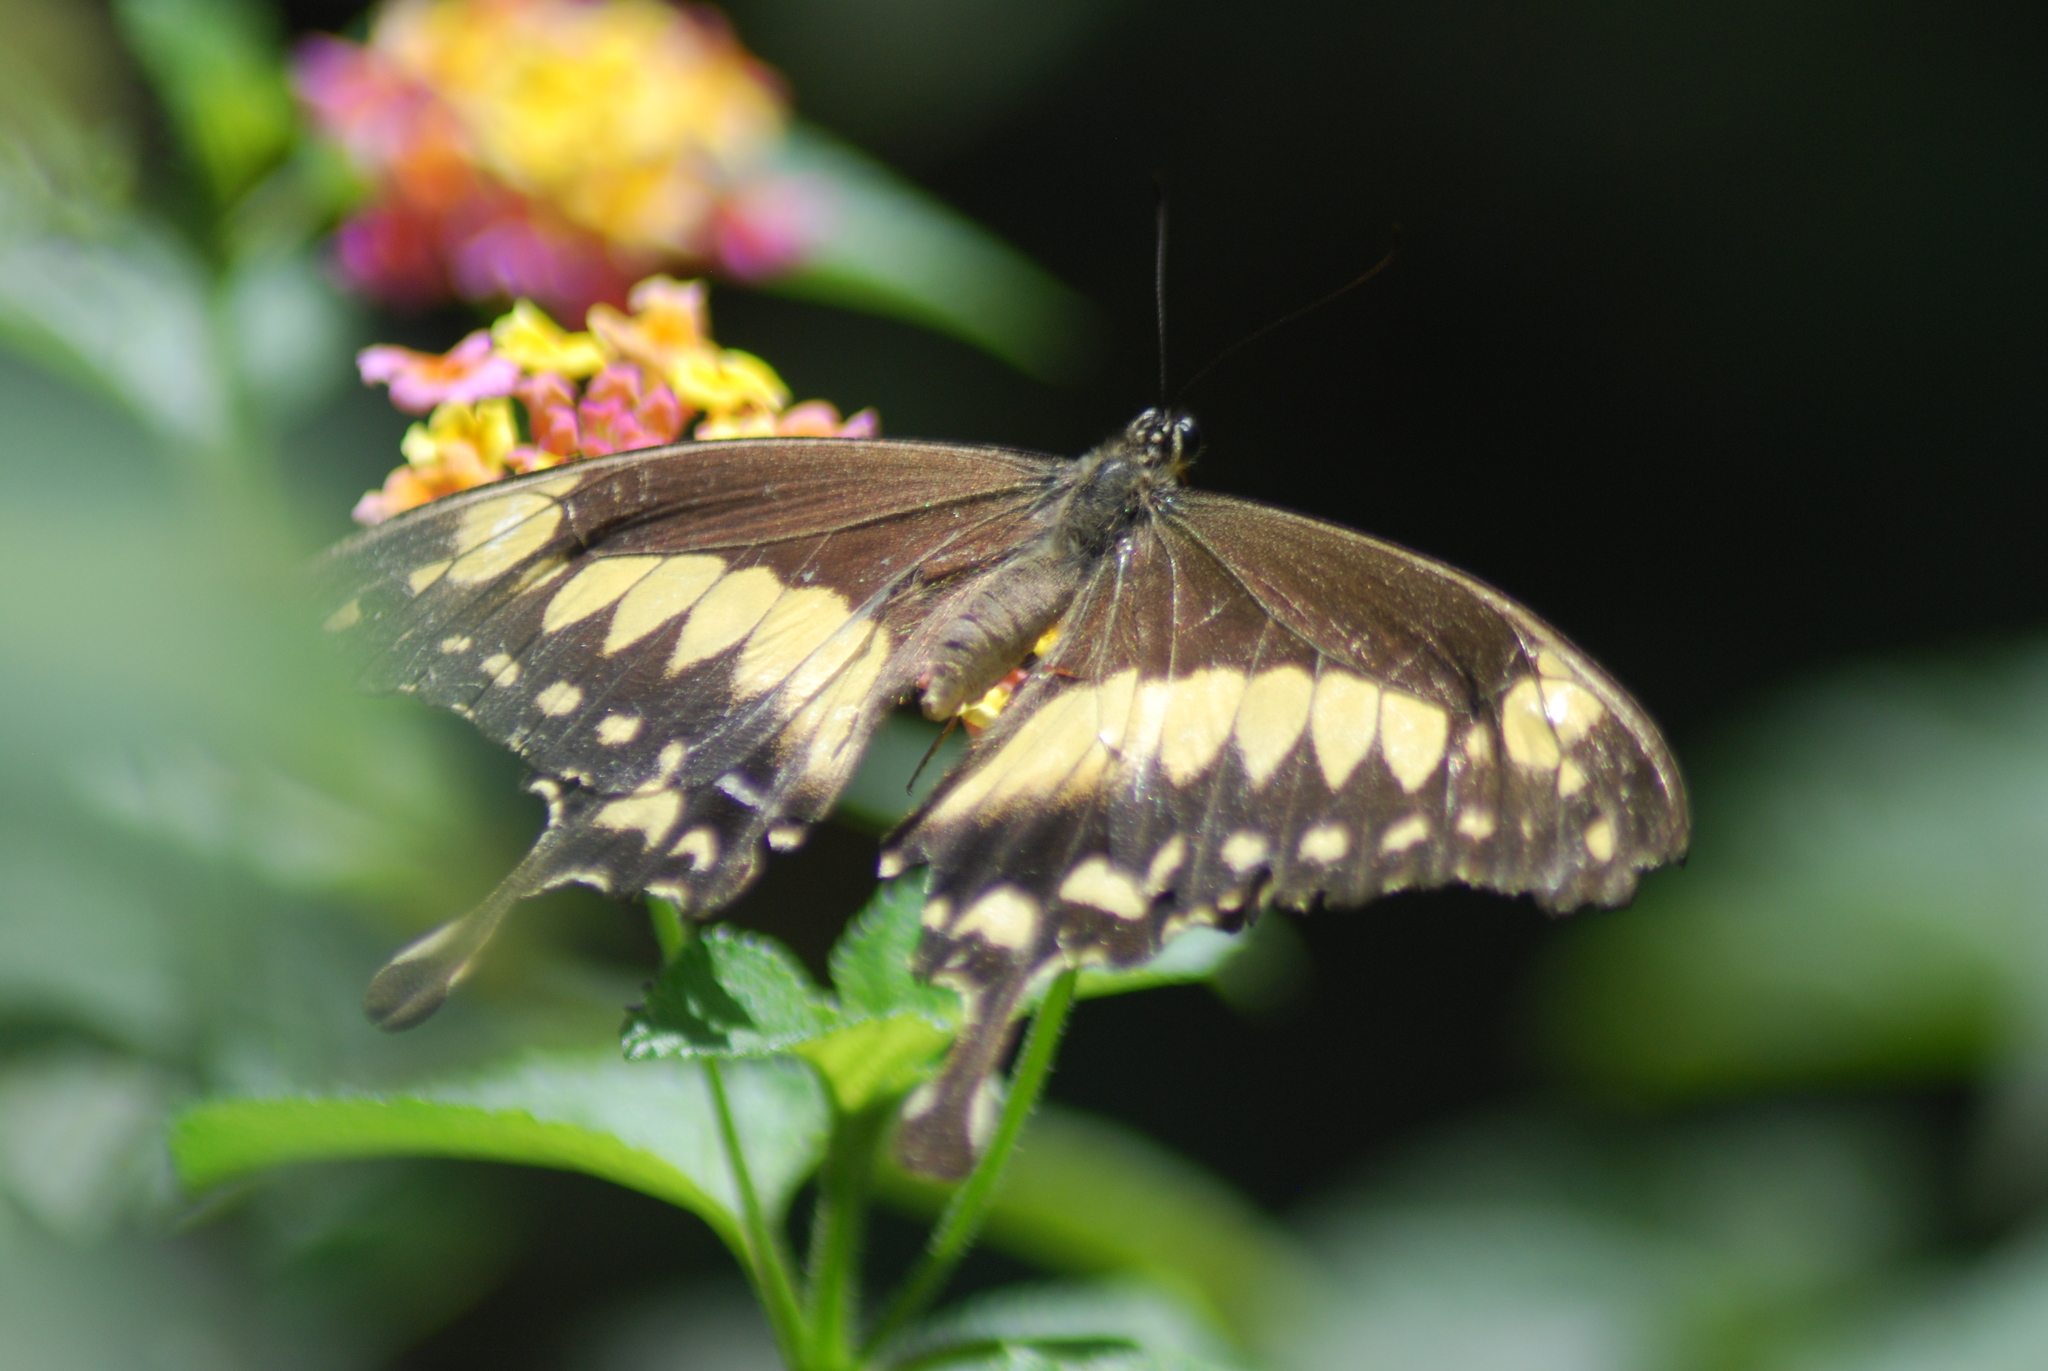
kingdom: Animalia
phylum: Arthropoda
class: Insecta
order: Lepidoptera
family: Papilionidae
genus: Papilio
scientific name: Papilio phorcas
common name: Apple-green swallowtail
